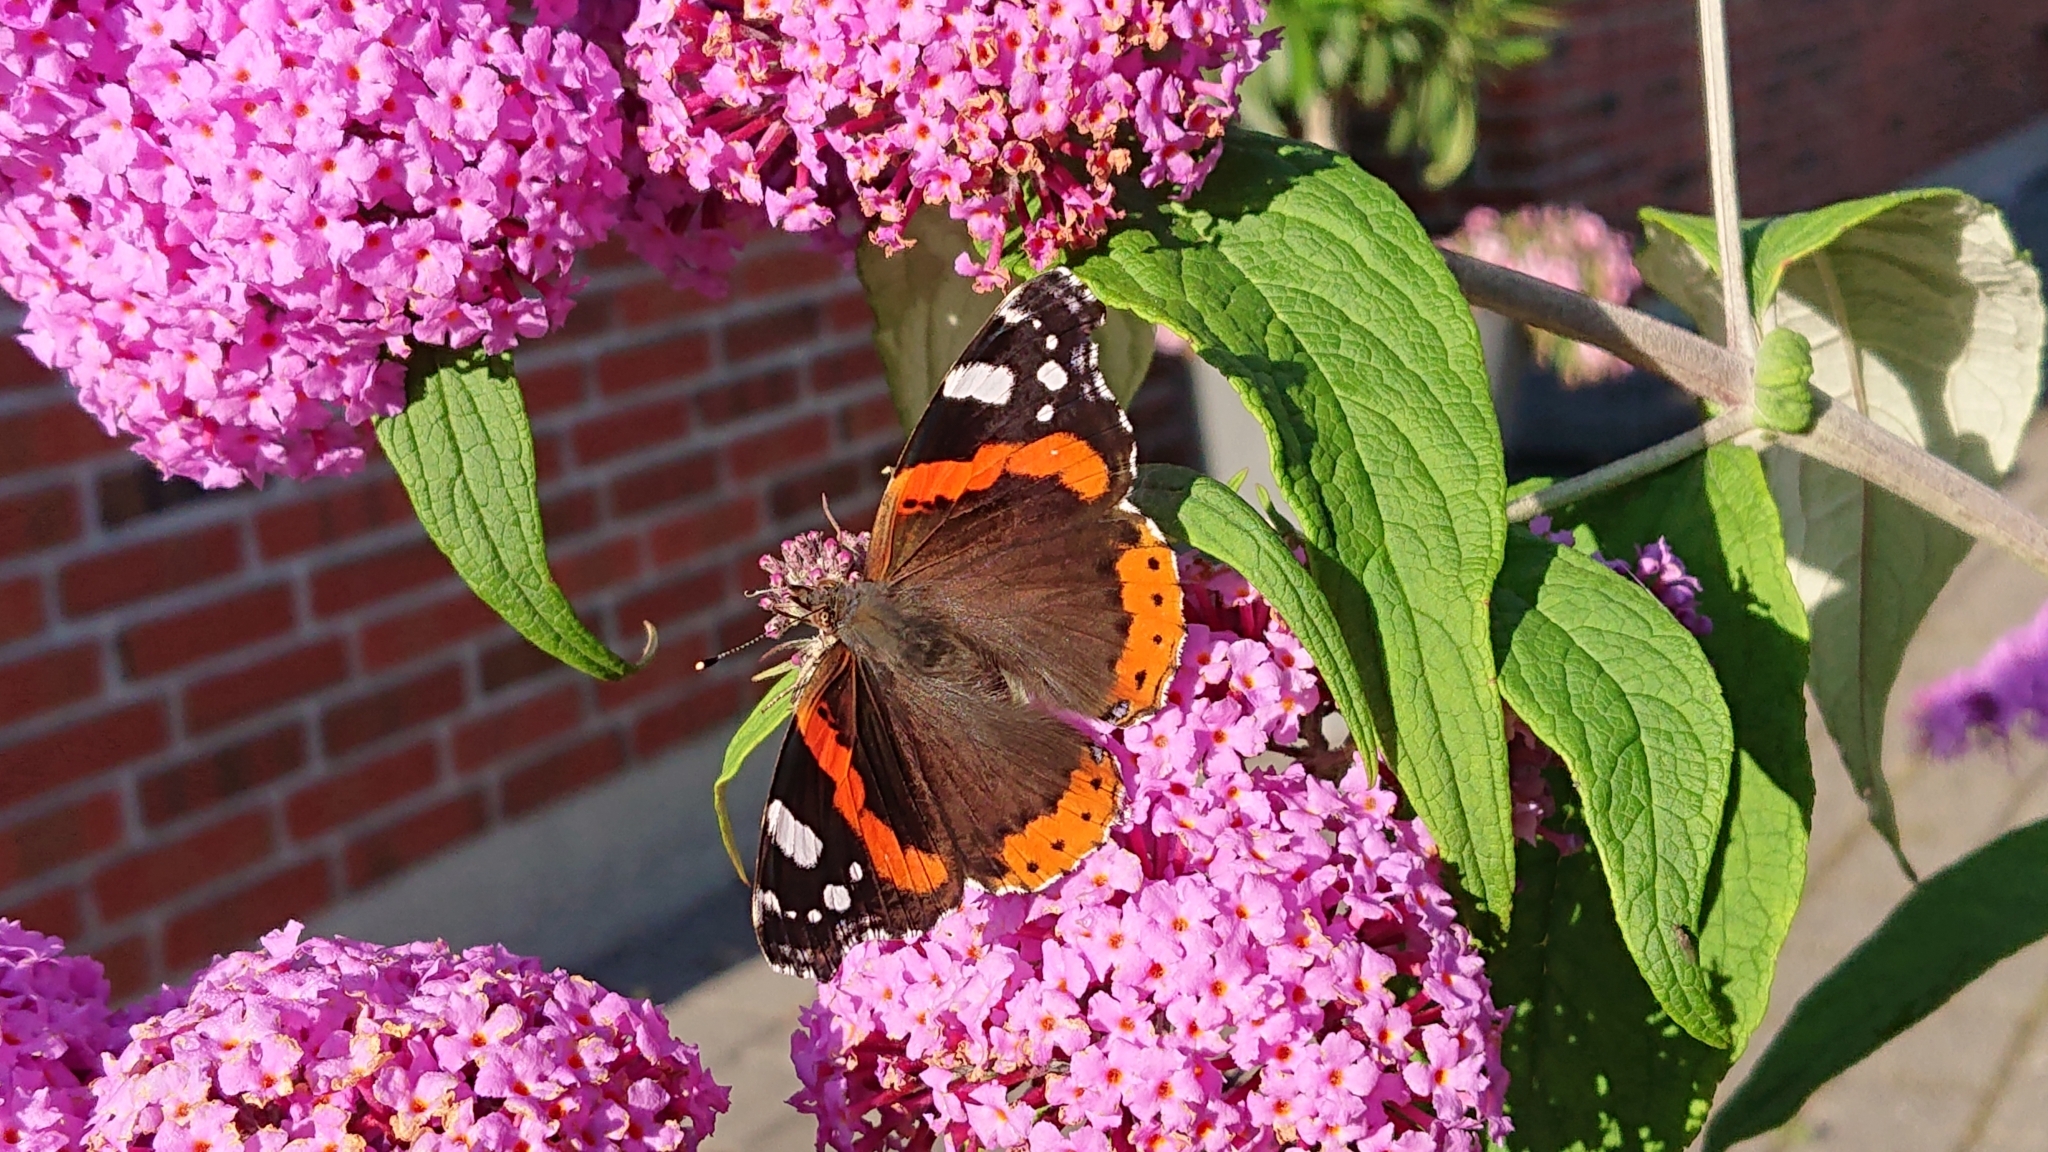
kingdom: Animalia
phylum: Arthropoda
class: Insecta
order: Lepidoptera
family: Nymphalidae
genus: Vanessa
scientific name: Vanessa atalanta
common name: Red admiral
